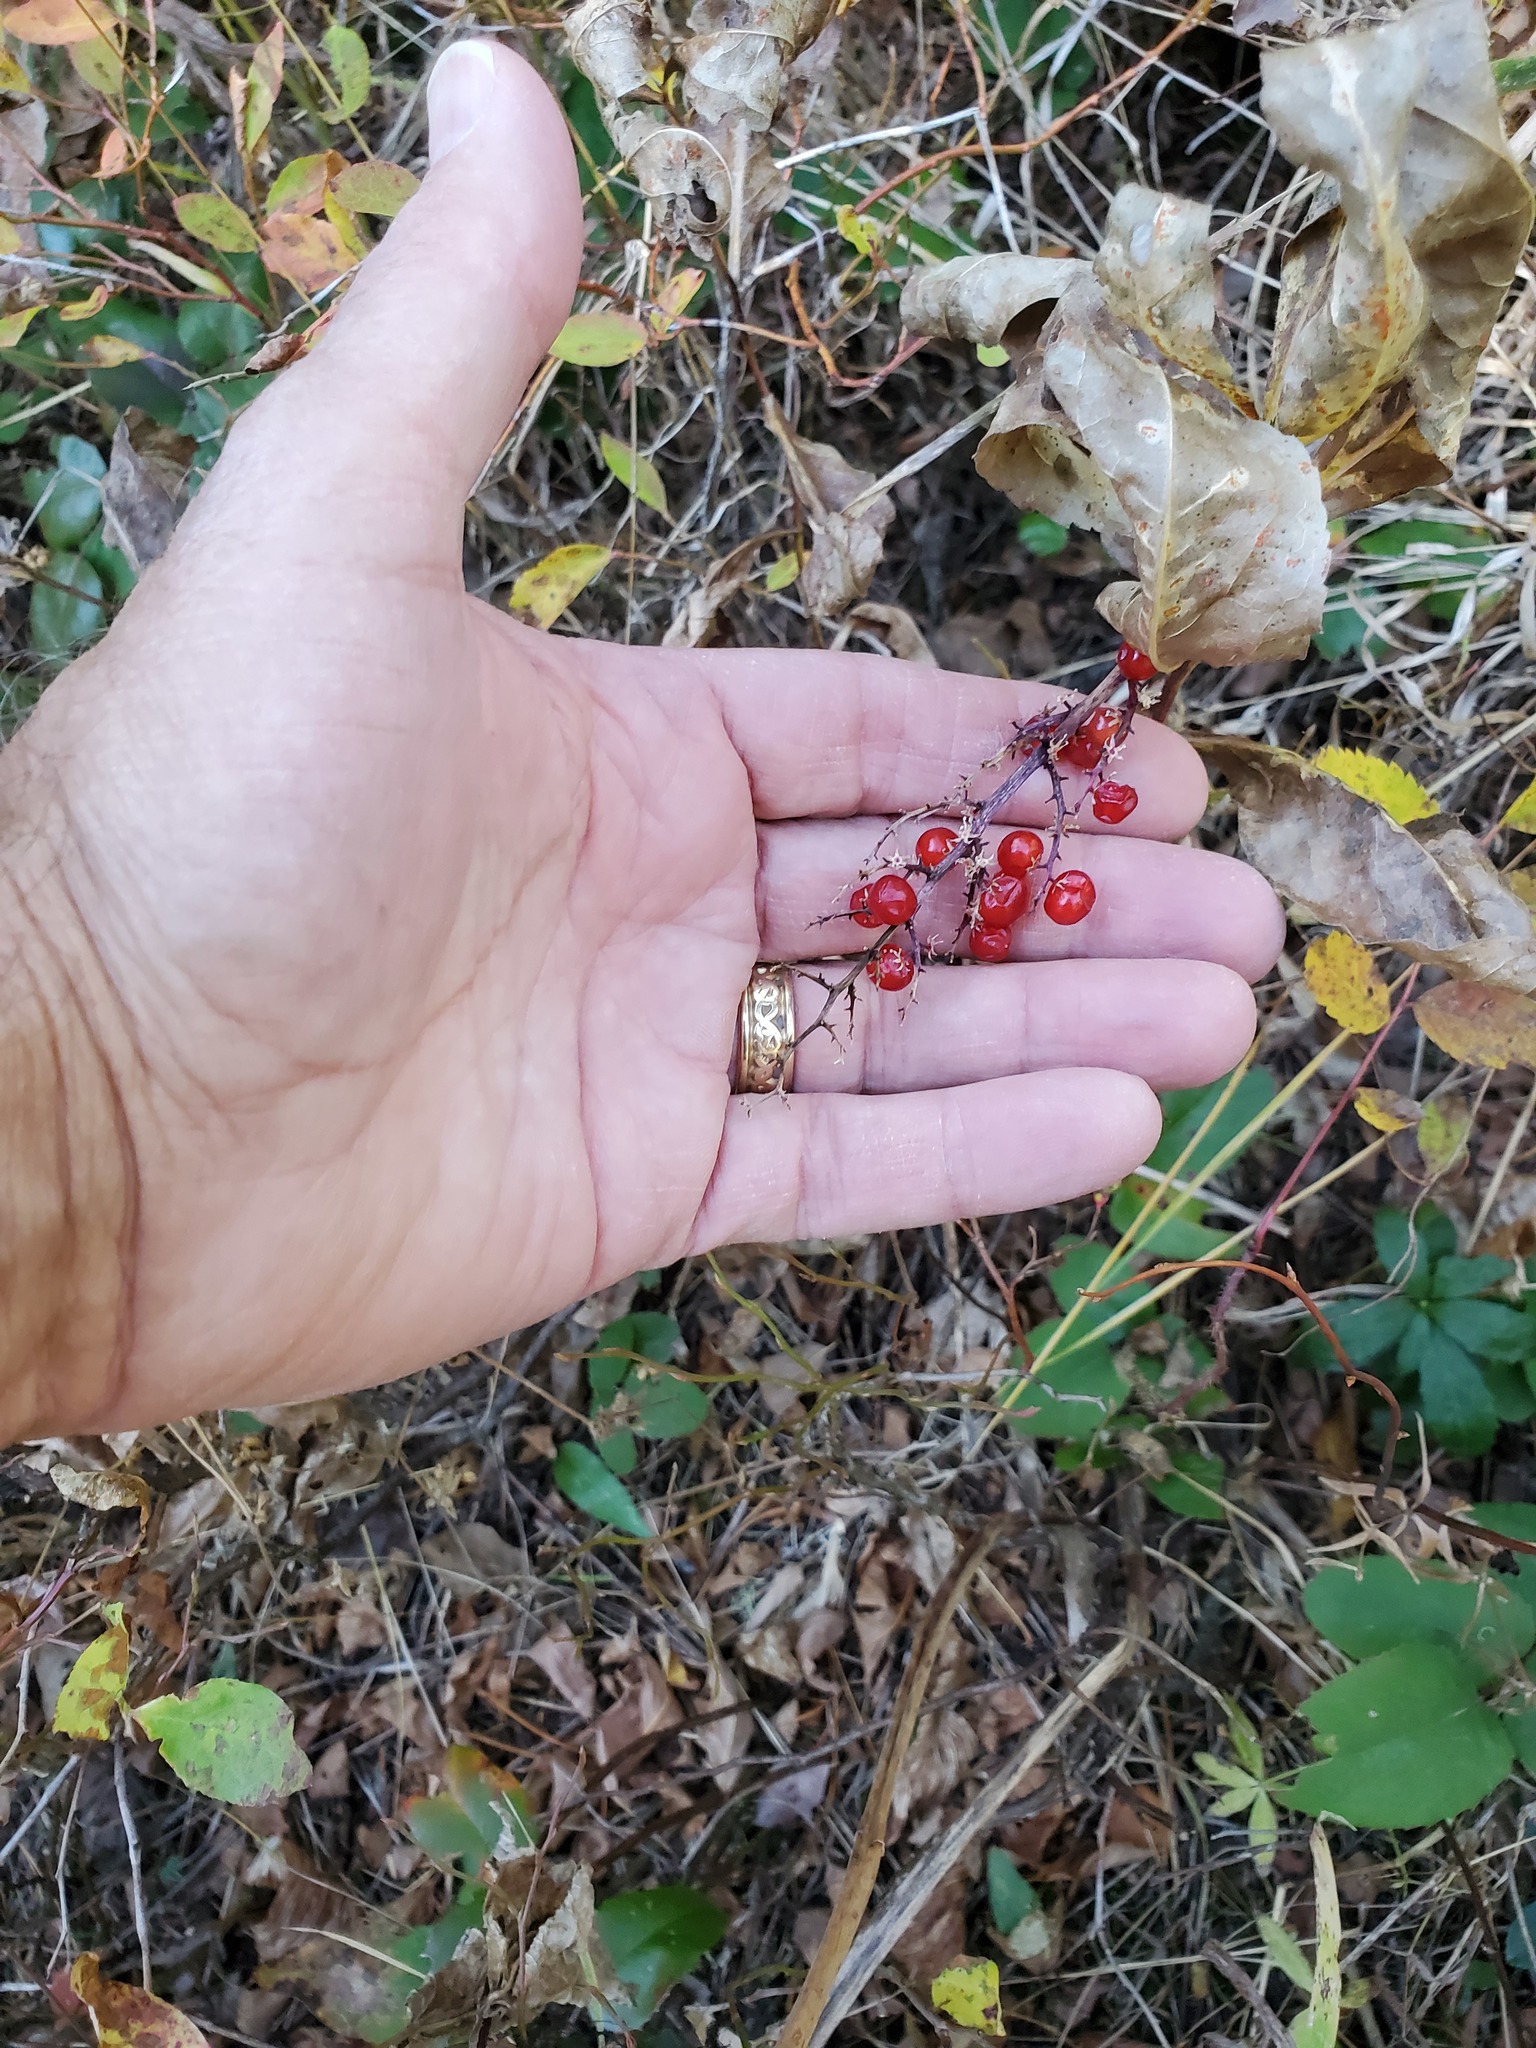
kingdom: Plantae
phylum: Tracheophyta
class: Liliopsida
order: Asparagales
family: Asparagaceae
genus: Maianthemum
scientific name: Maianthemum racemosum
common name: False spikenard
